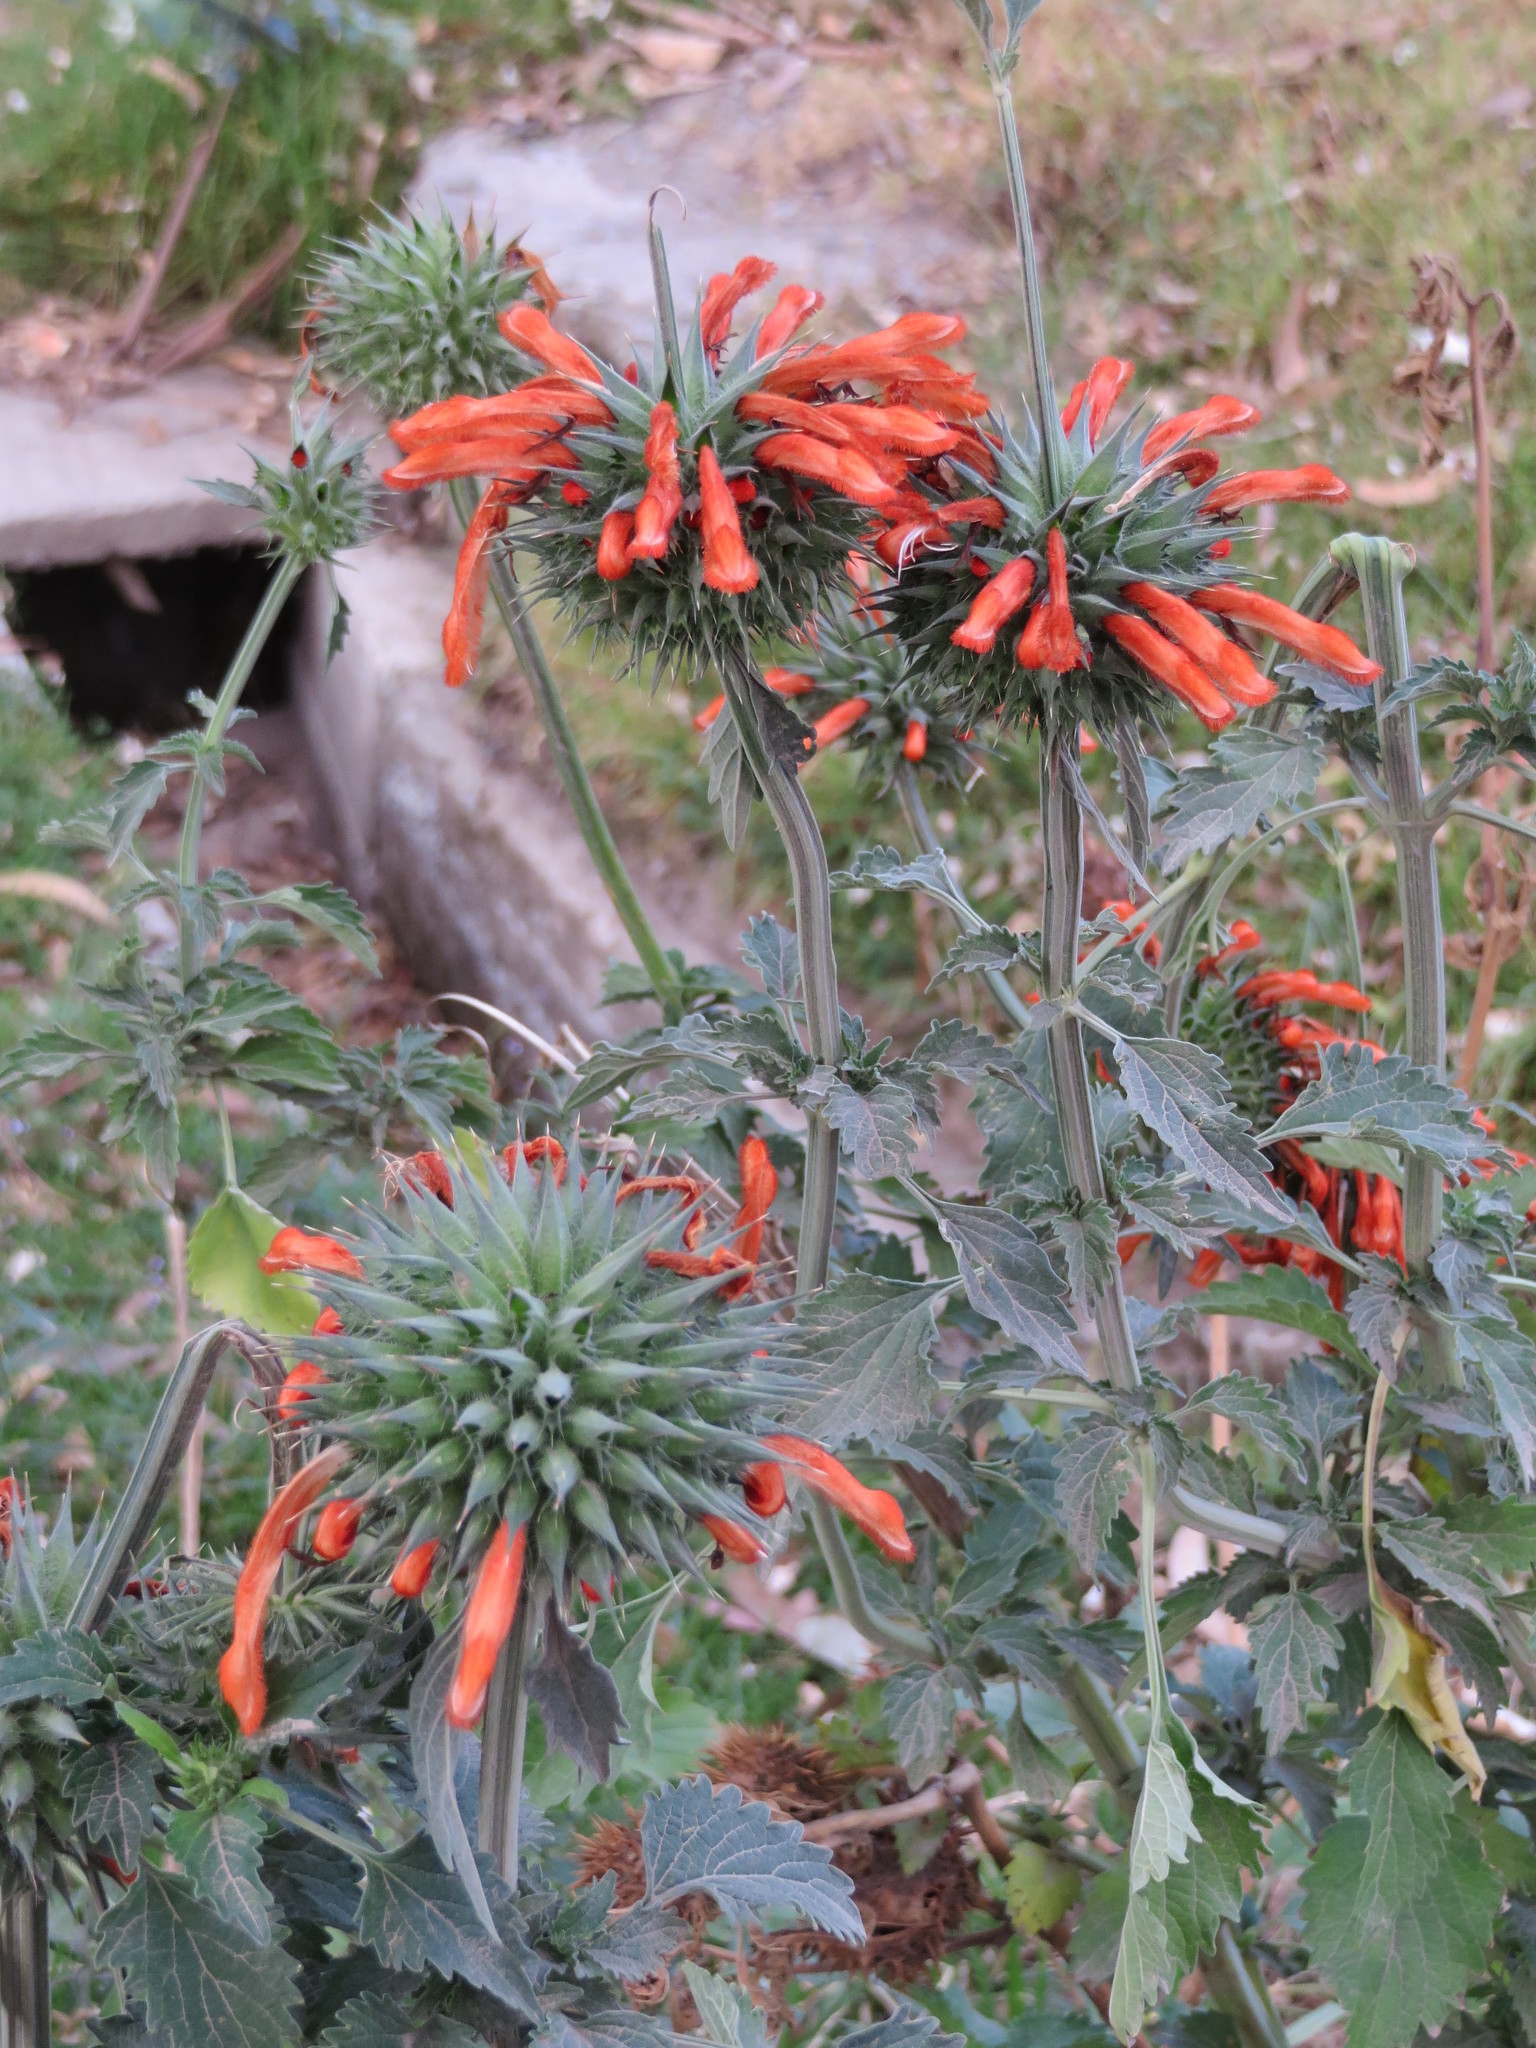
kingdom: Plantae
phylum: Tracheophyta
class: Magnoliopsida
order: Lamiales
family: Lamiaceae
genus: Leonotis
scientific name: Leonotis nepetifolia
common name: Christmas candlestick
